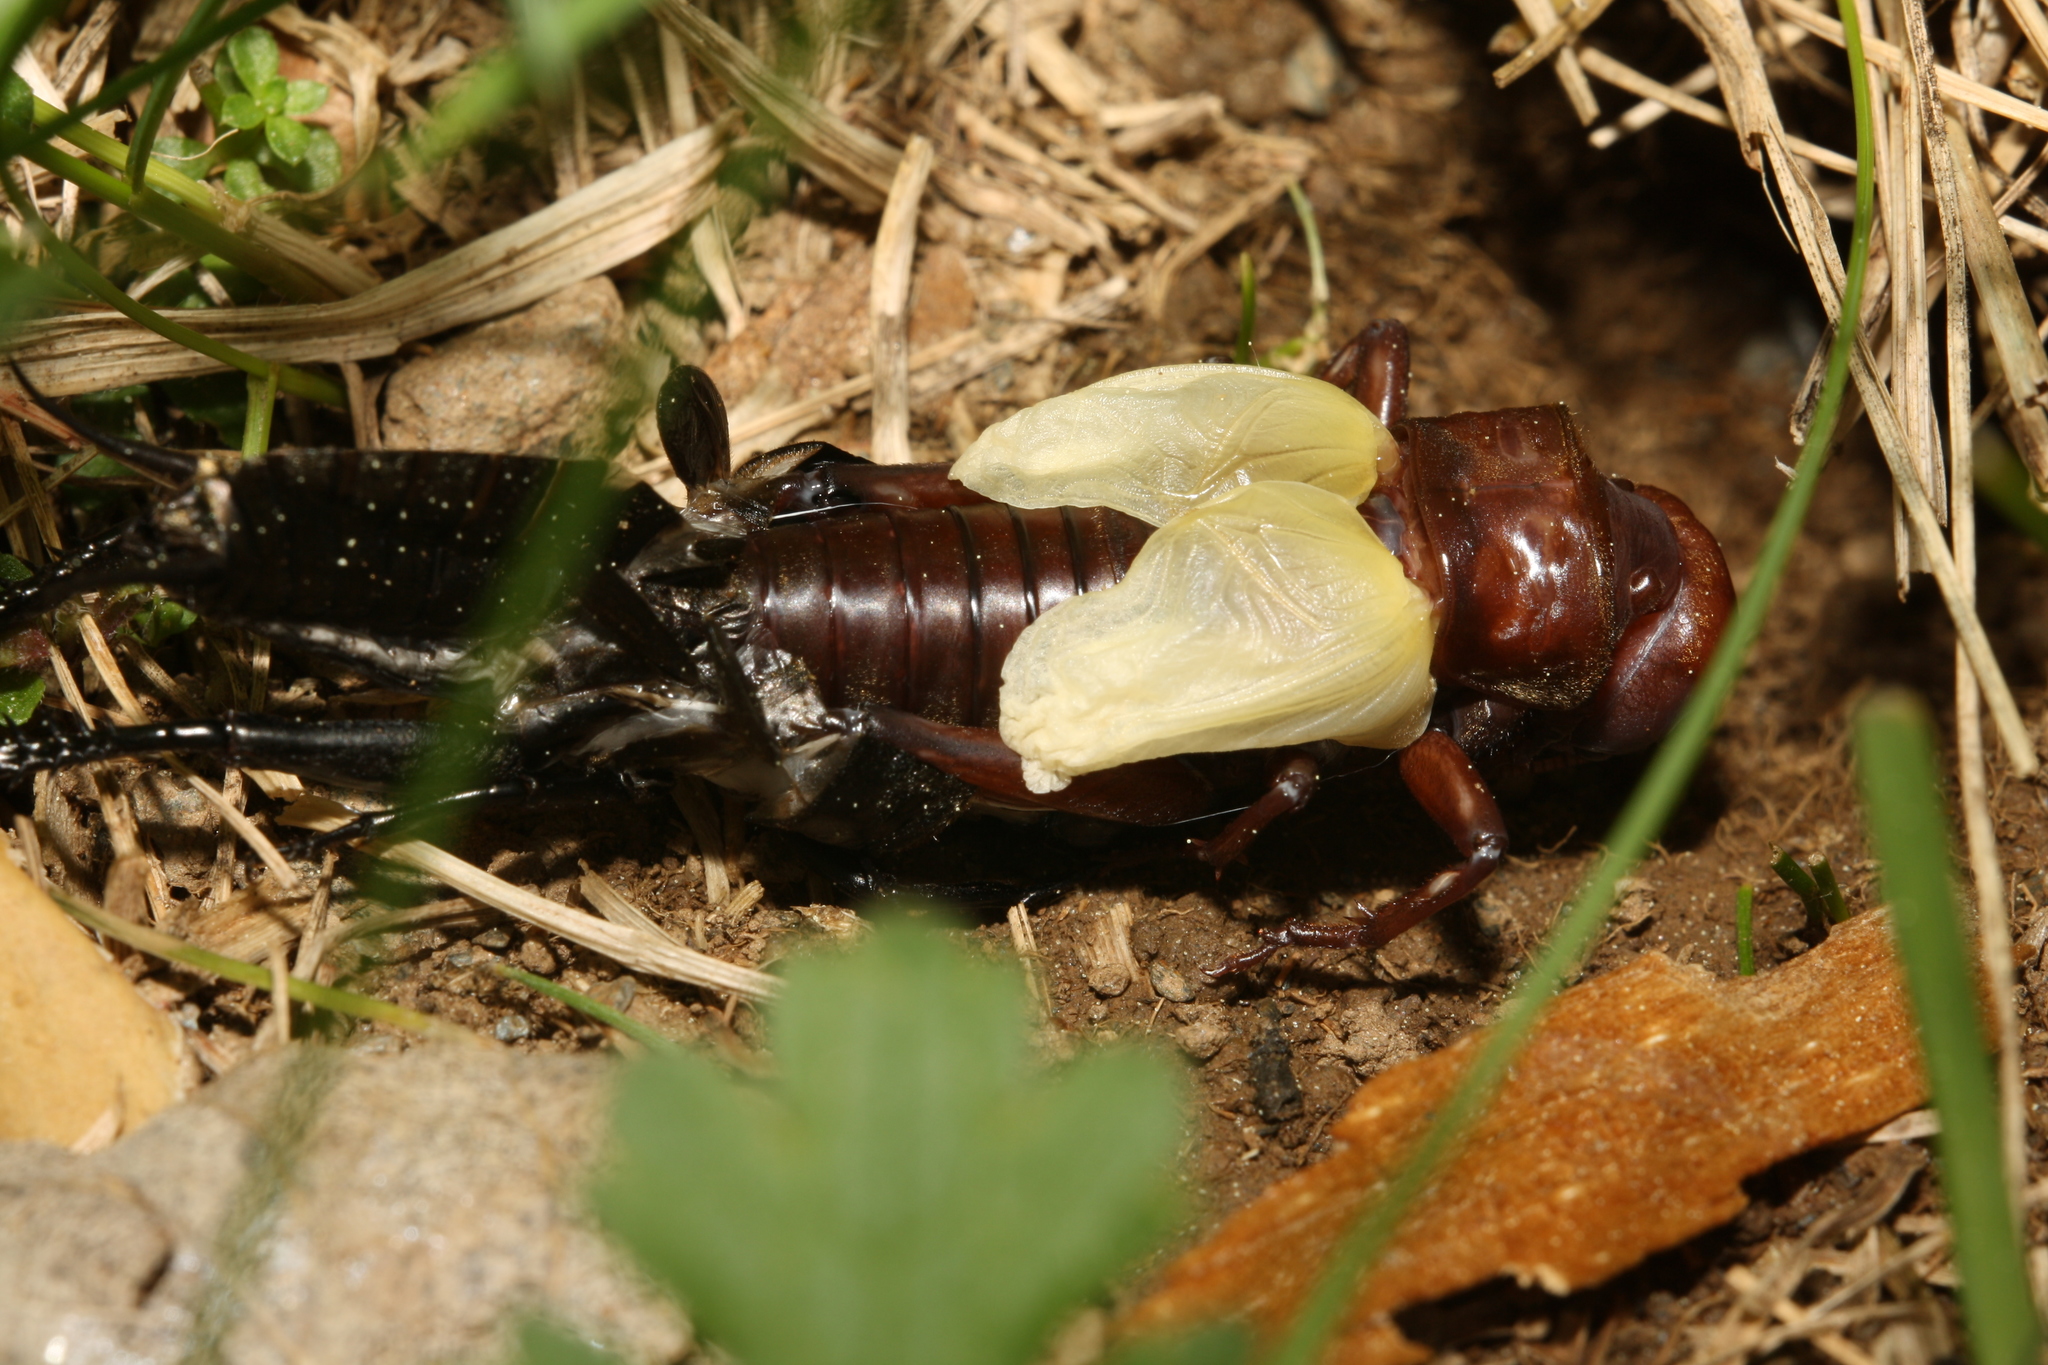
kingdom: Animalia
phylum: Arthropoda
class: Insecta
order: Orthoptera
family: Gryllidae
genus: Gryllus
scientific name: Gryllus campestris
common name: Field cricket
